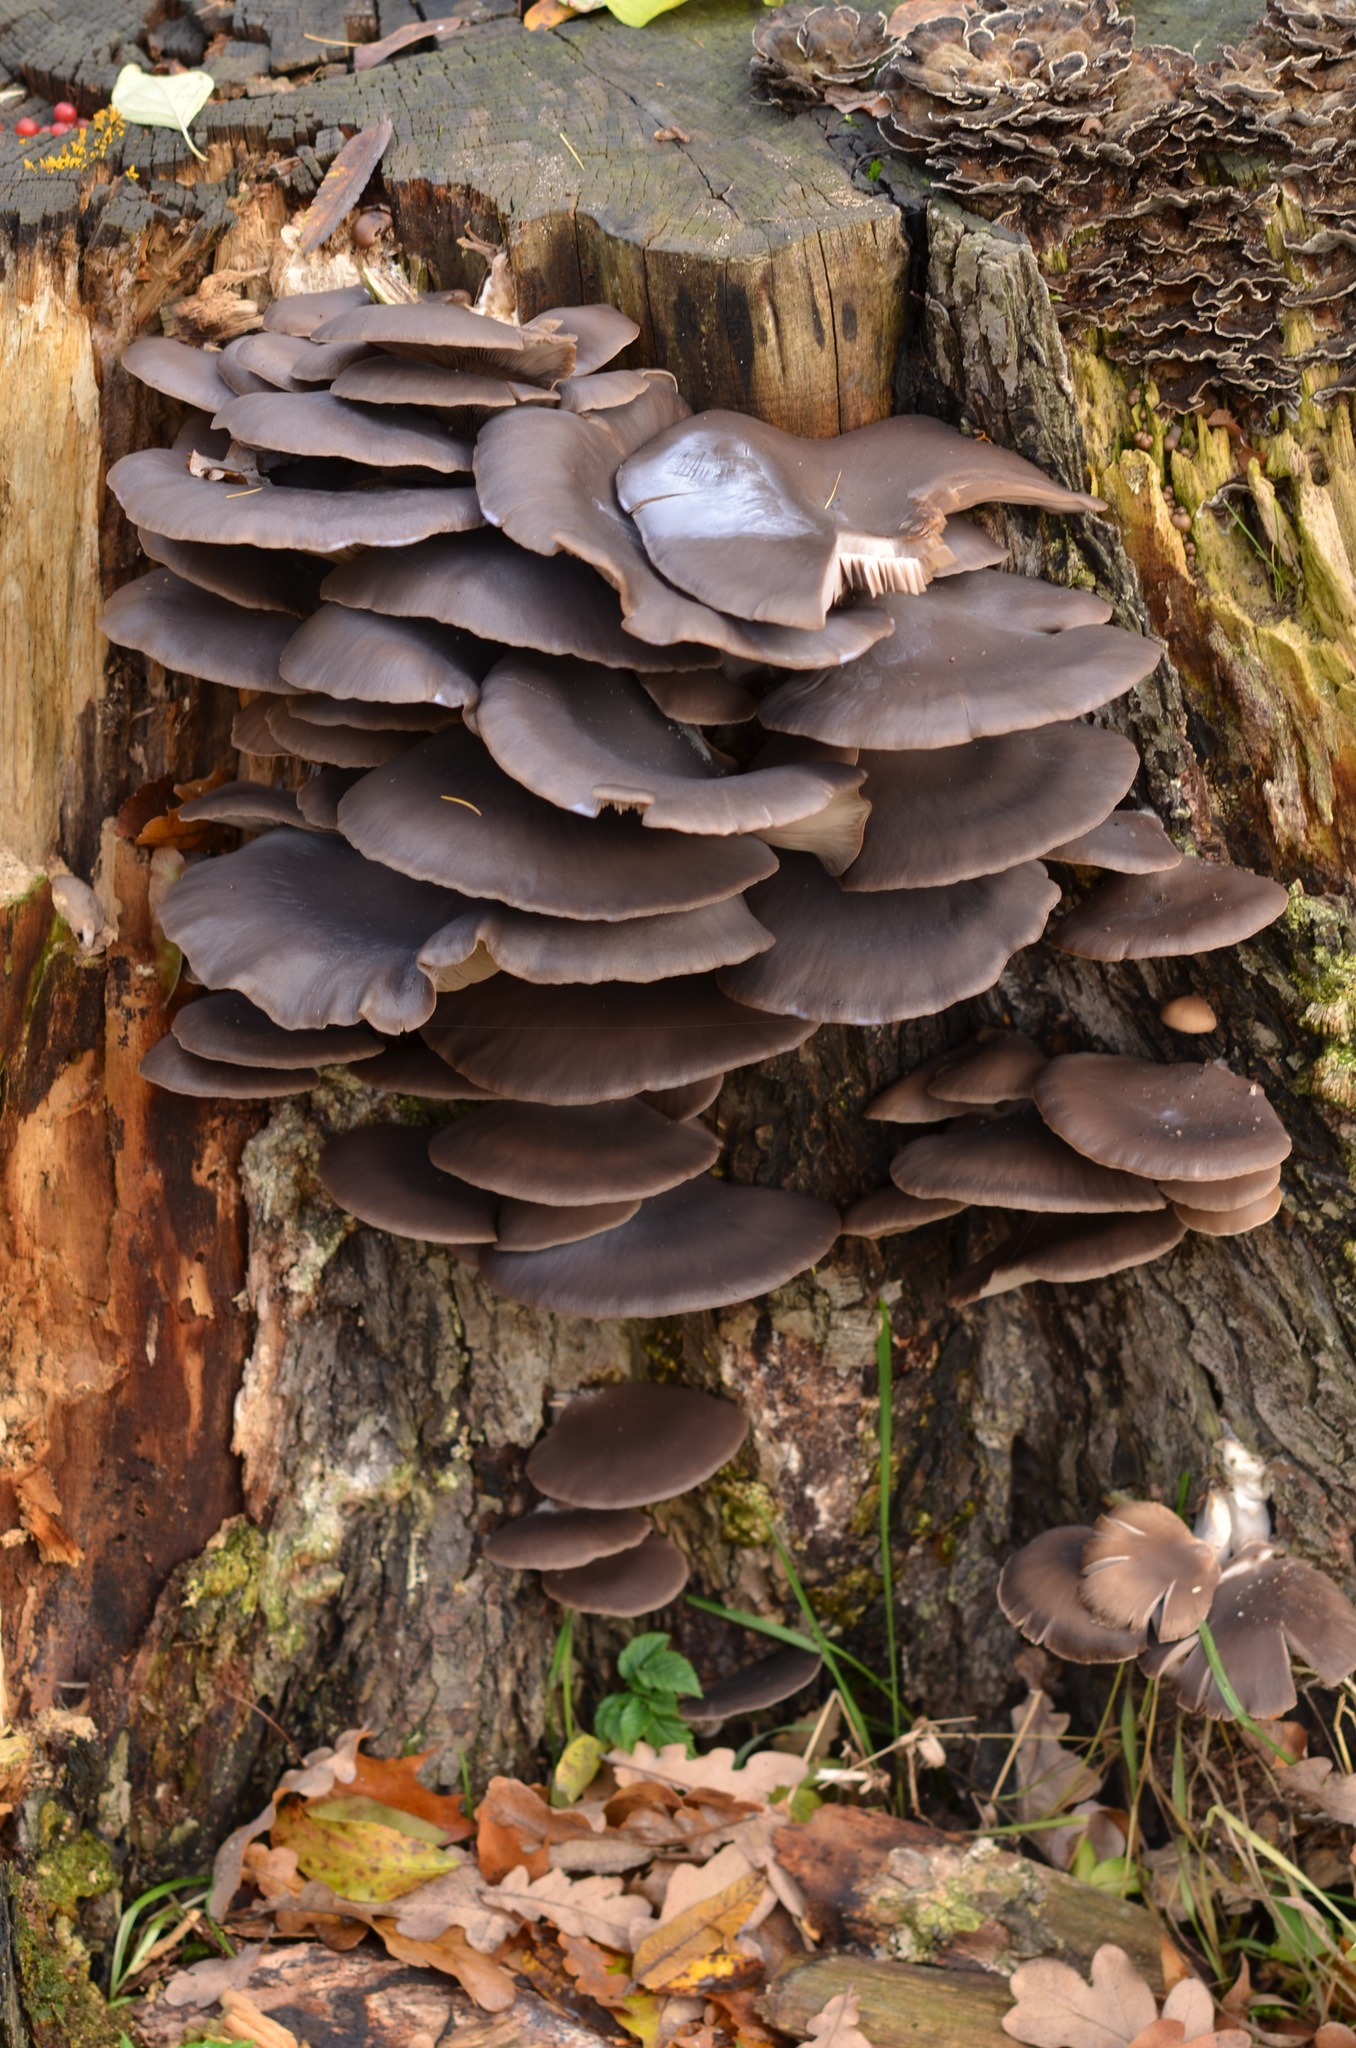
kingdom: Fungi
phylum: Basidiomycota
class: Agaricomycetes
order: Agaricales
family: Pleurotaceae
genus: Pleurotus
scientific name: Pleurotus ostreatus
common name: Oyster mushroom
